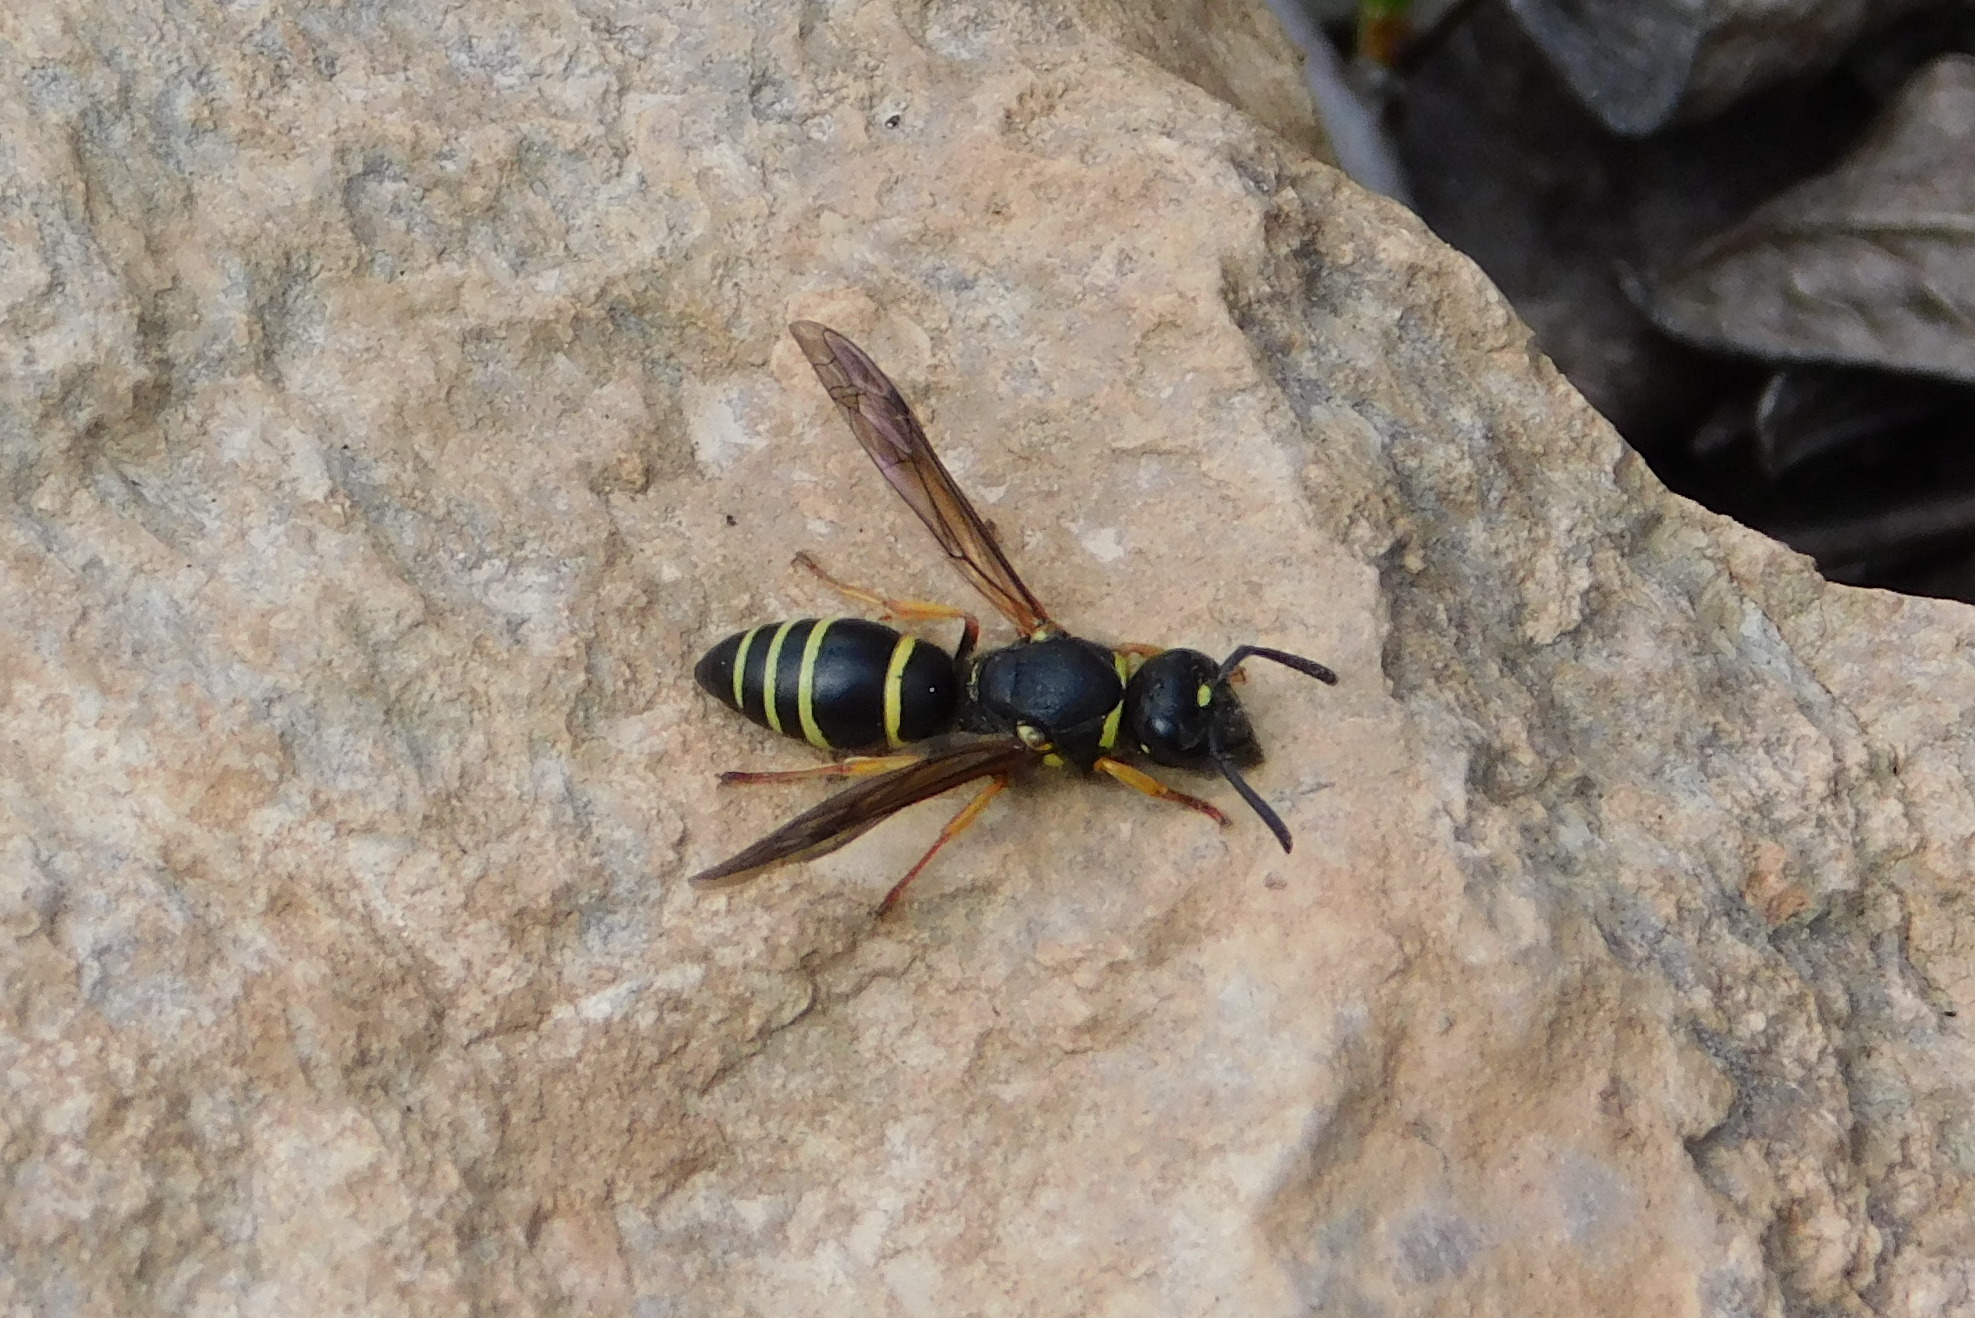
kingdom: Animalia
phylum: Arthropoda
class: Insecta
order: Hymenoptera
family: Eumenidae
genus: Allodynerus
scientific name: Allodynerus rossii
